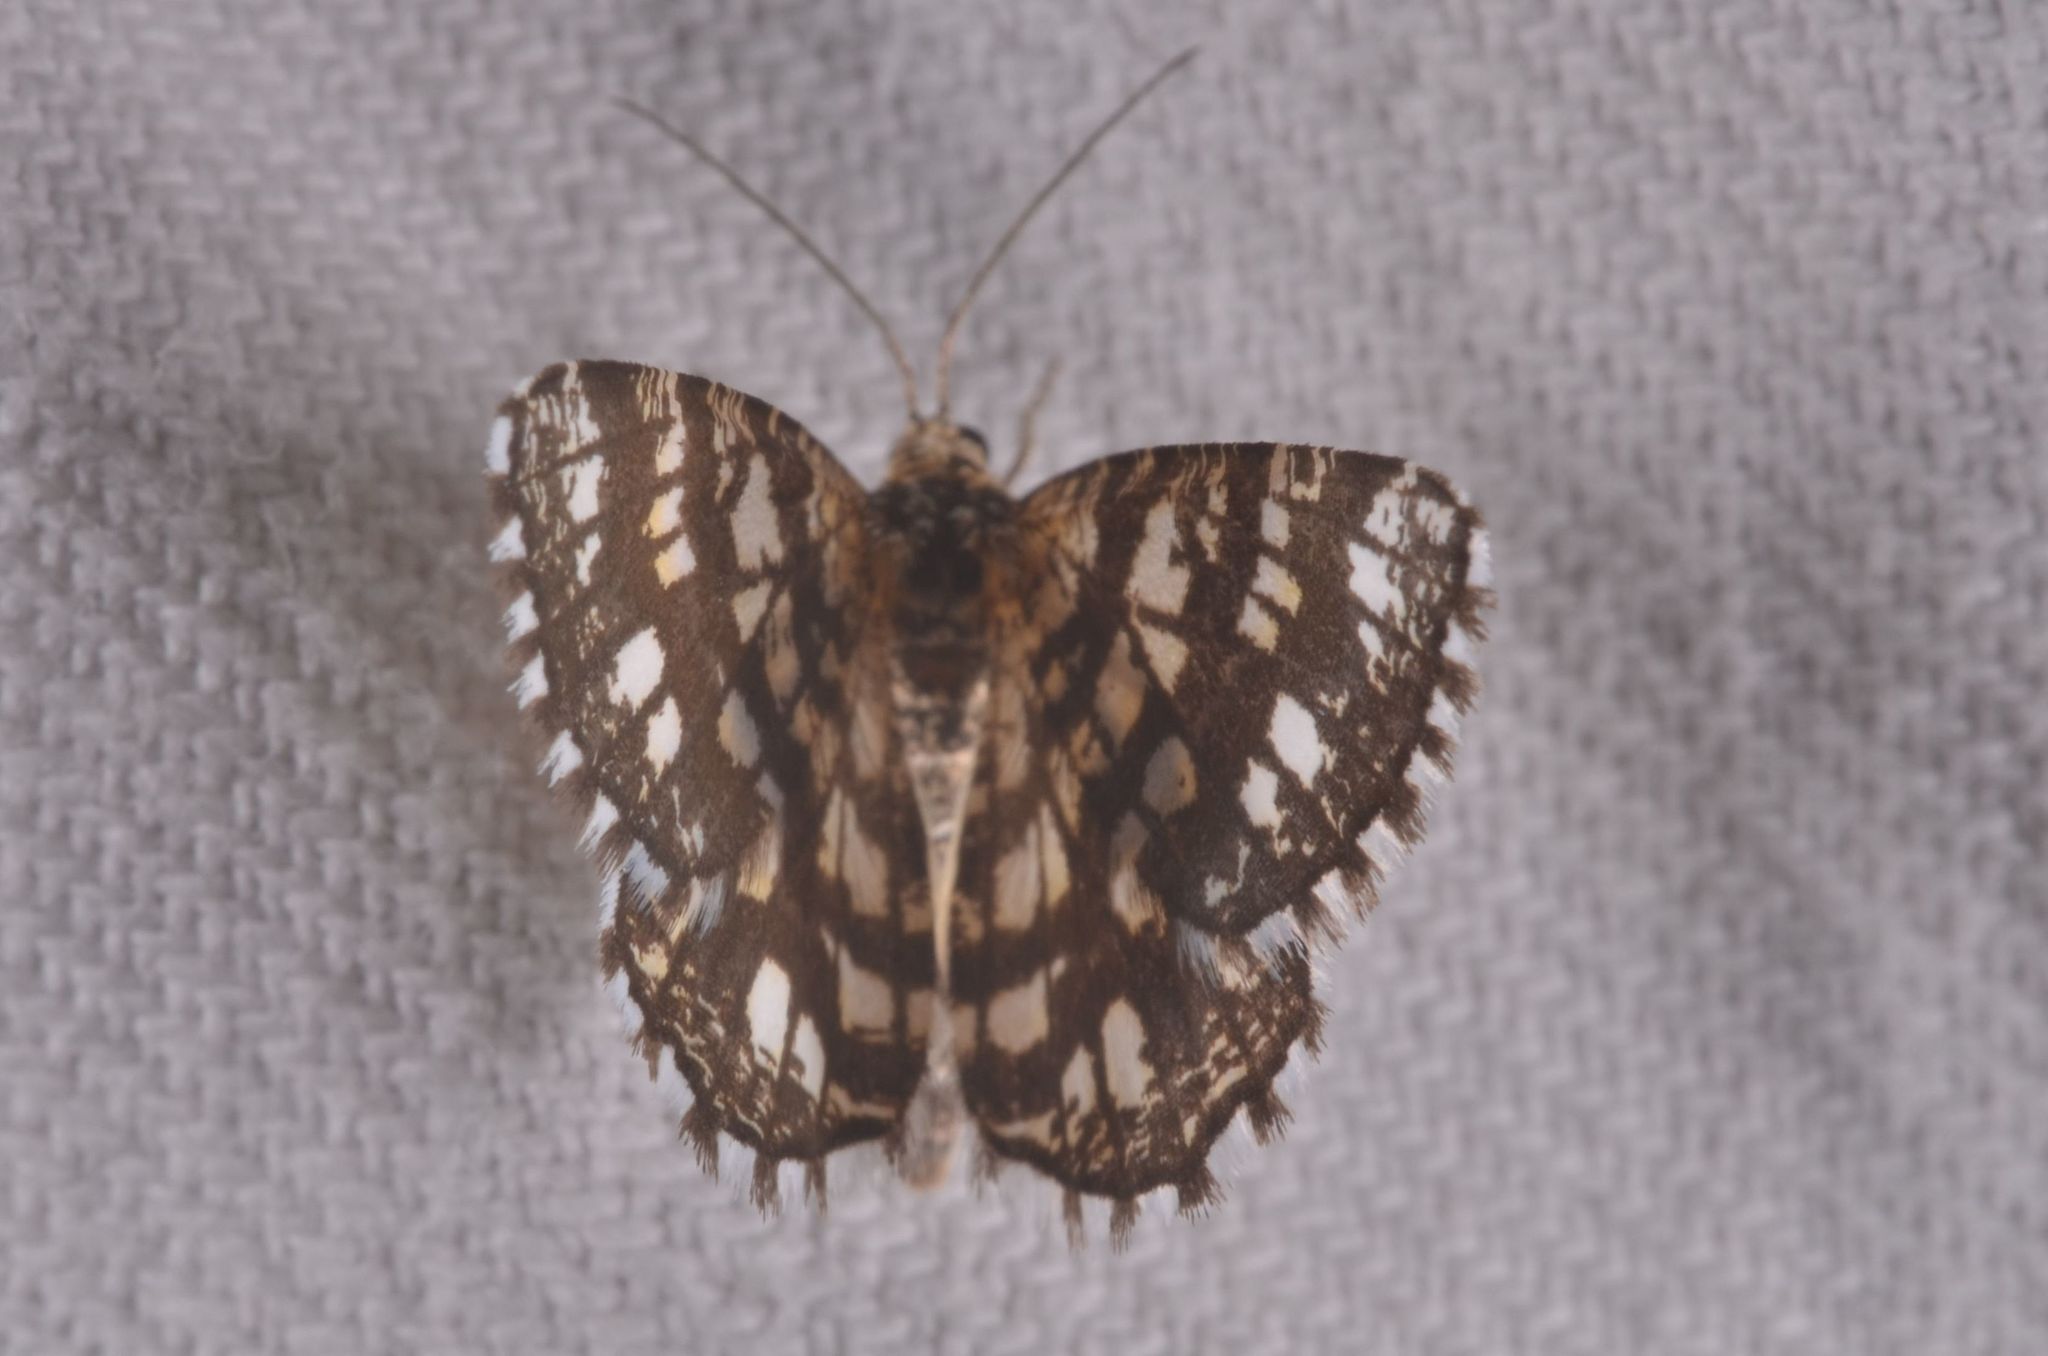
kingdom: Animalia
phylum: Arthropoda
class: Insecta
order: Lepidoptera
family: Geometridae
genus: Chiasmia
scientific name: Chiasmia clathrata
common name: Latticed heath
